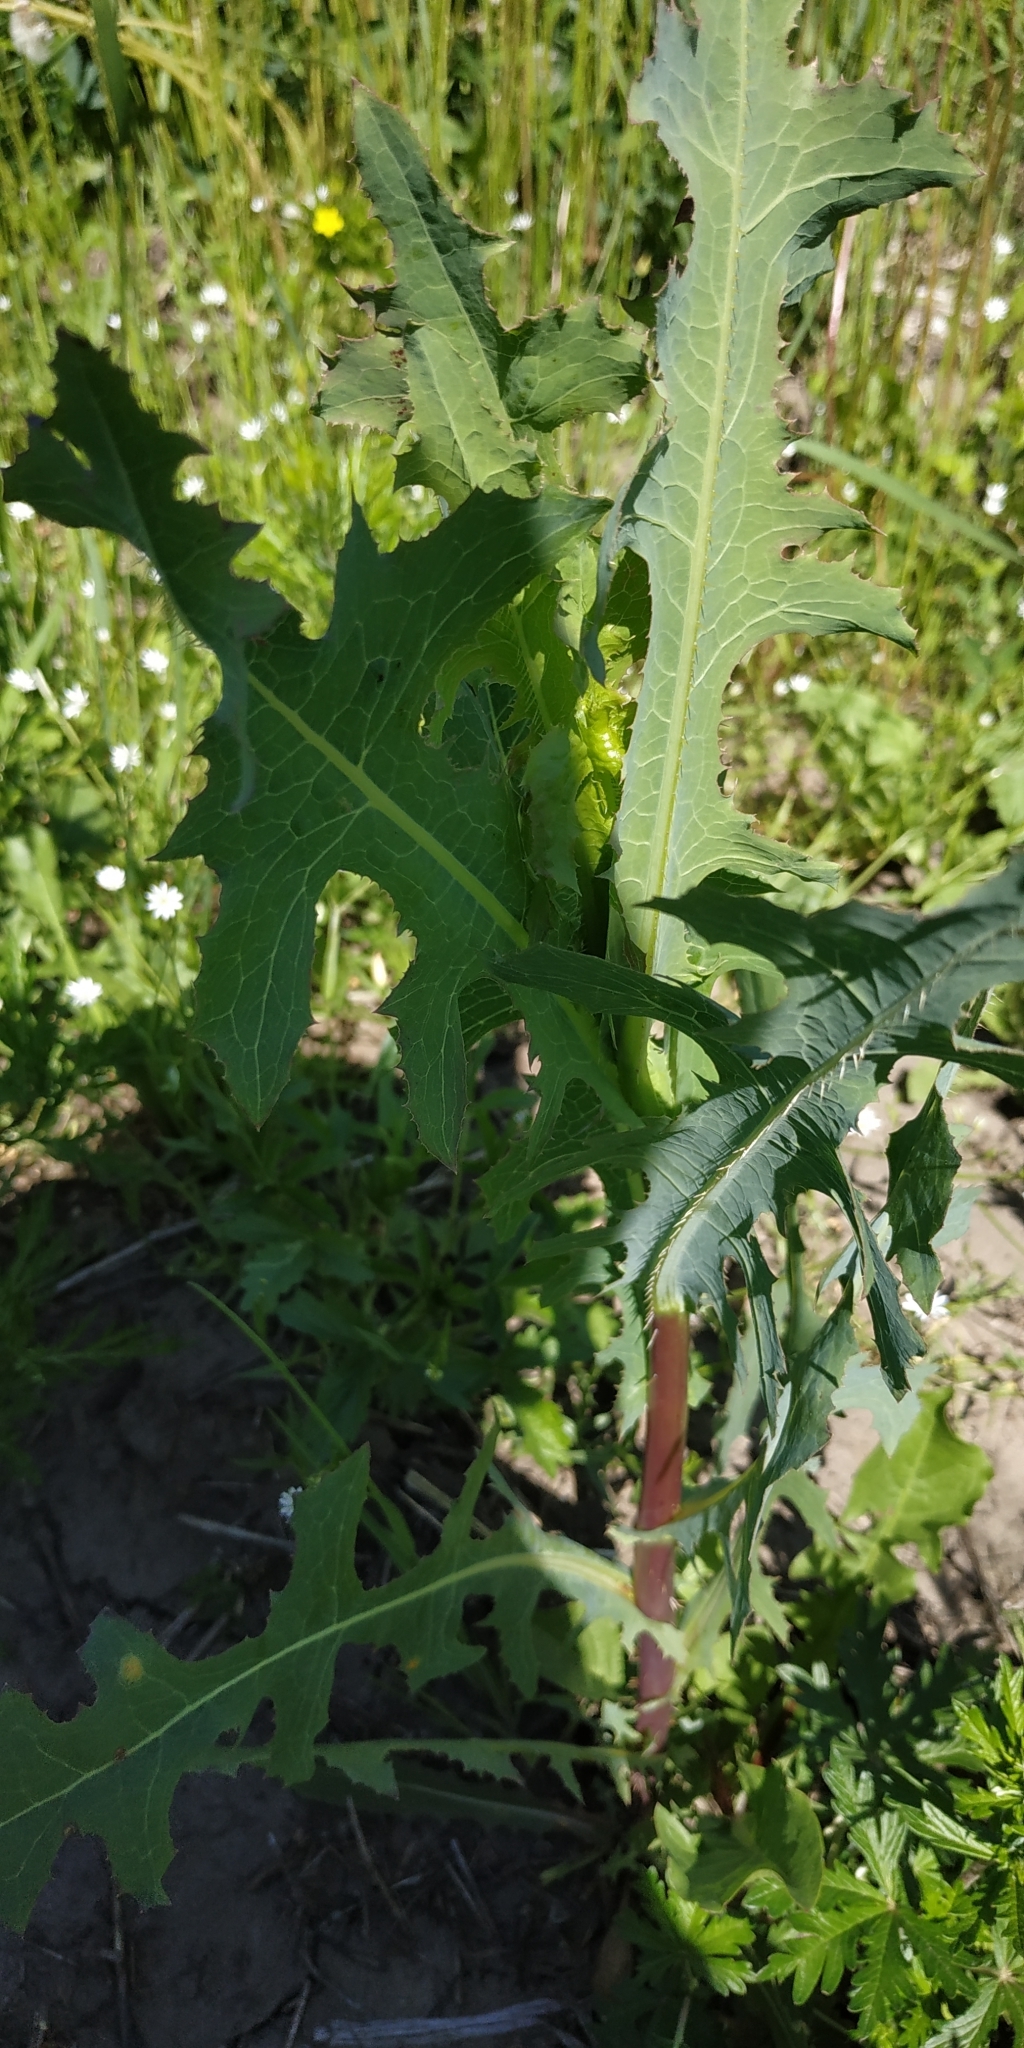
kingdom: Plantae
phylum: Tracheophyta
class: Magnoliopsida
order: Asterales
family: Asteraceae
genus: Lactuca
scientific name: Lactuca serriola
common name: Prickly lettuce
